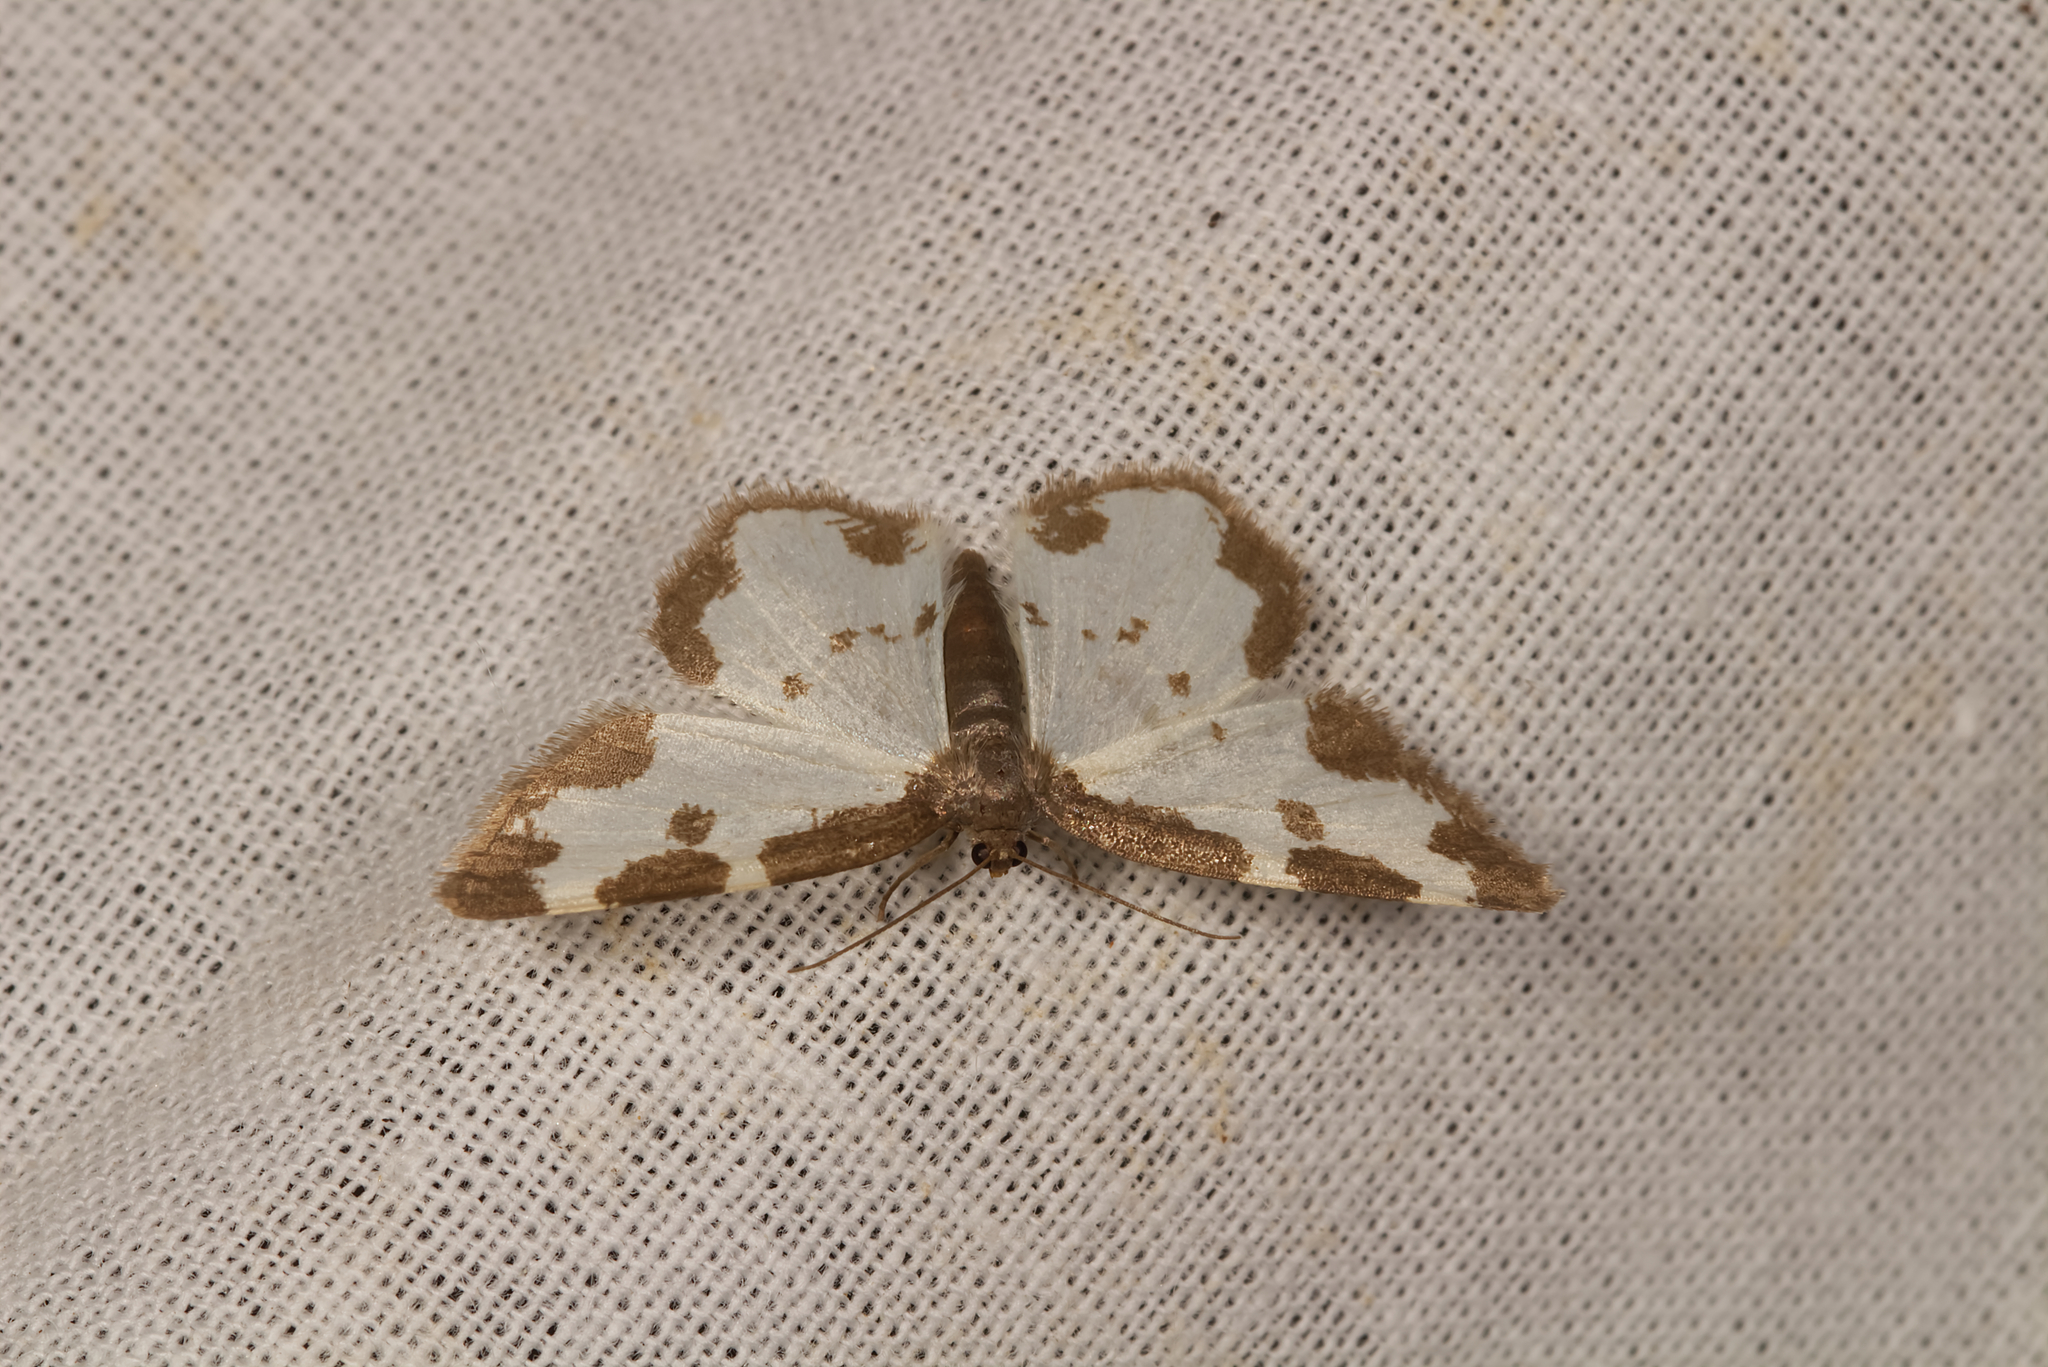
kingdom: Animalia
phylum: Arthropoda
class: Insecta
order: Lepidoptera
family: Geometridae
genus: Lomaspilis
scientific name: Lomaspilis marginata
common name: Clouded border
